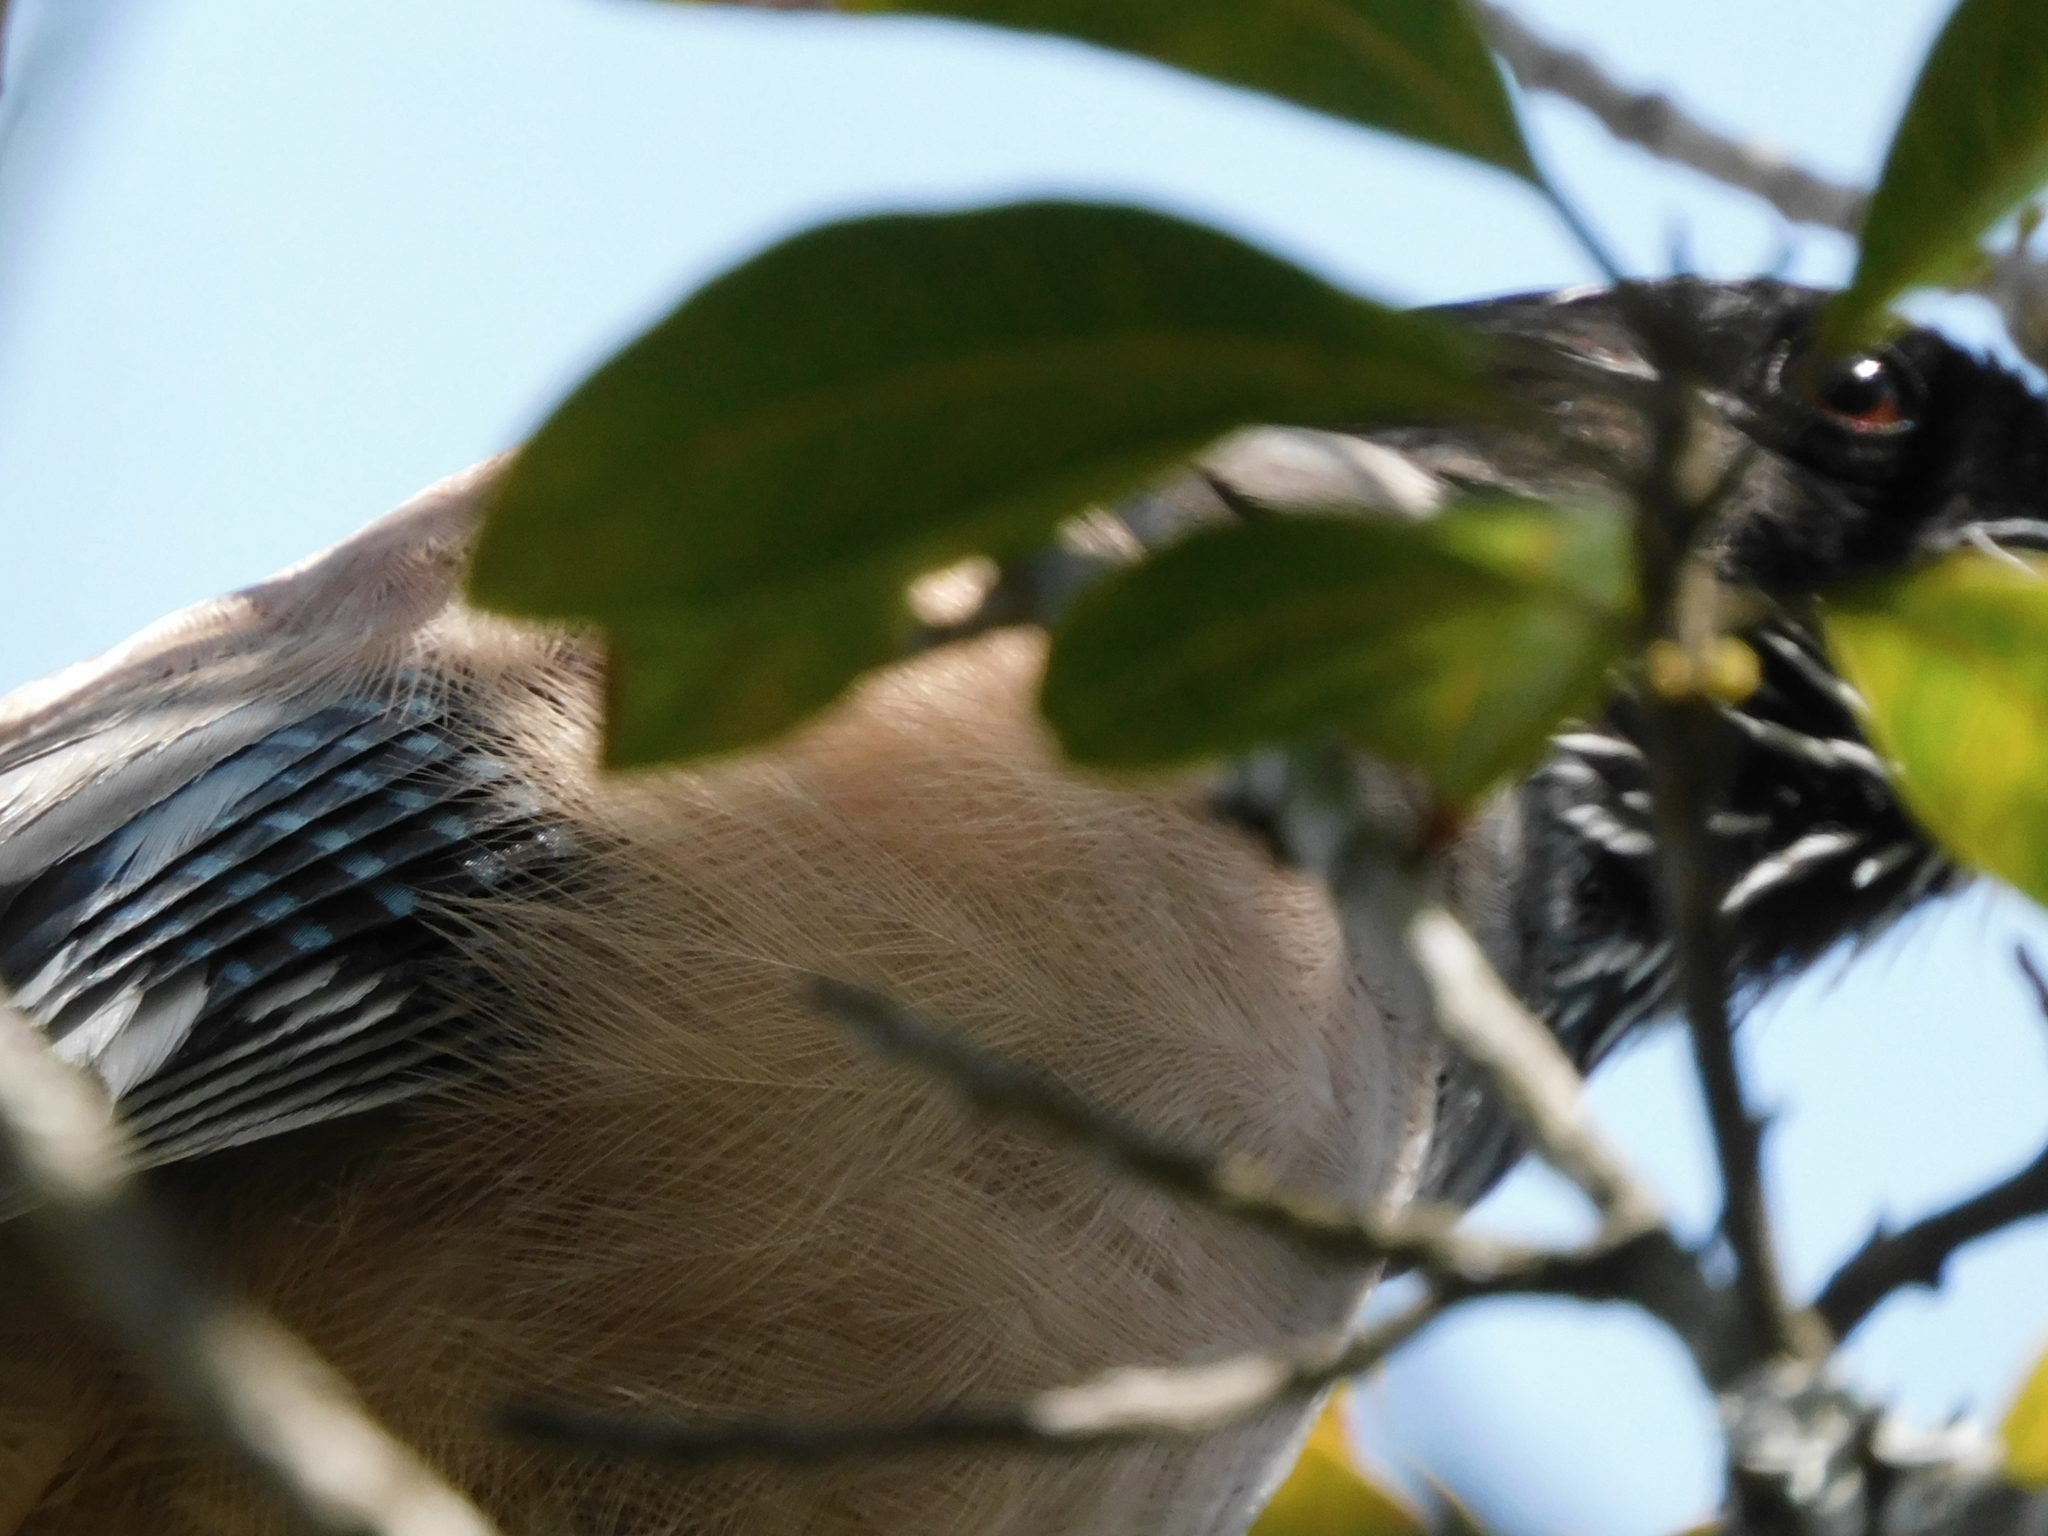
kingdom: Animalia
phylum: Chordata
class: Aves
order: Passeriformes
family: Corvidae
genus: Garrulus
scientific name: Garrulus glandarius
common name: Eurasian jay
